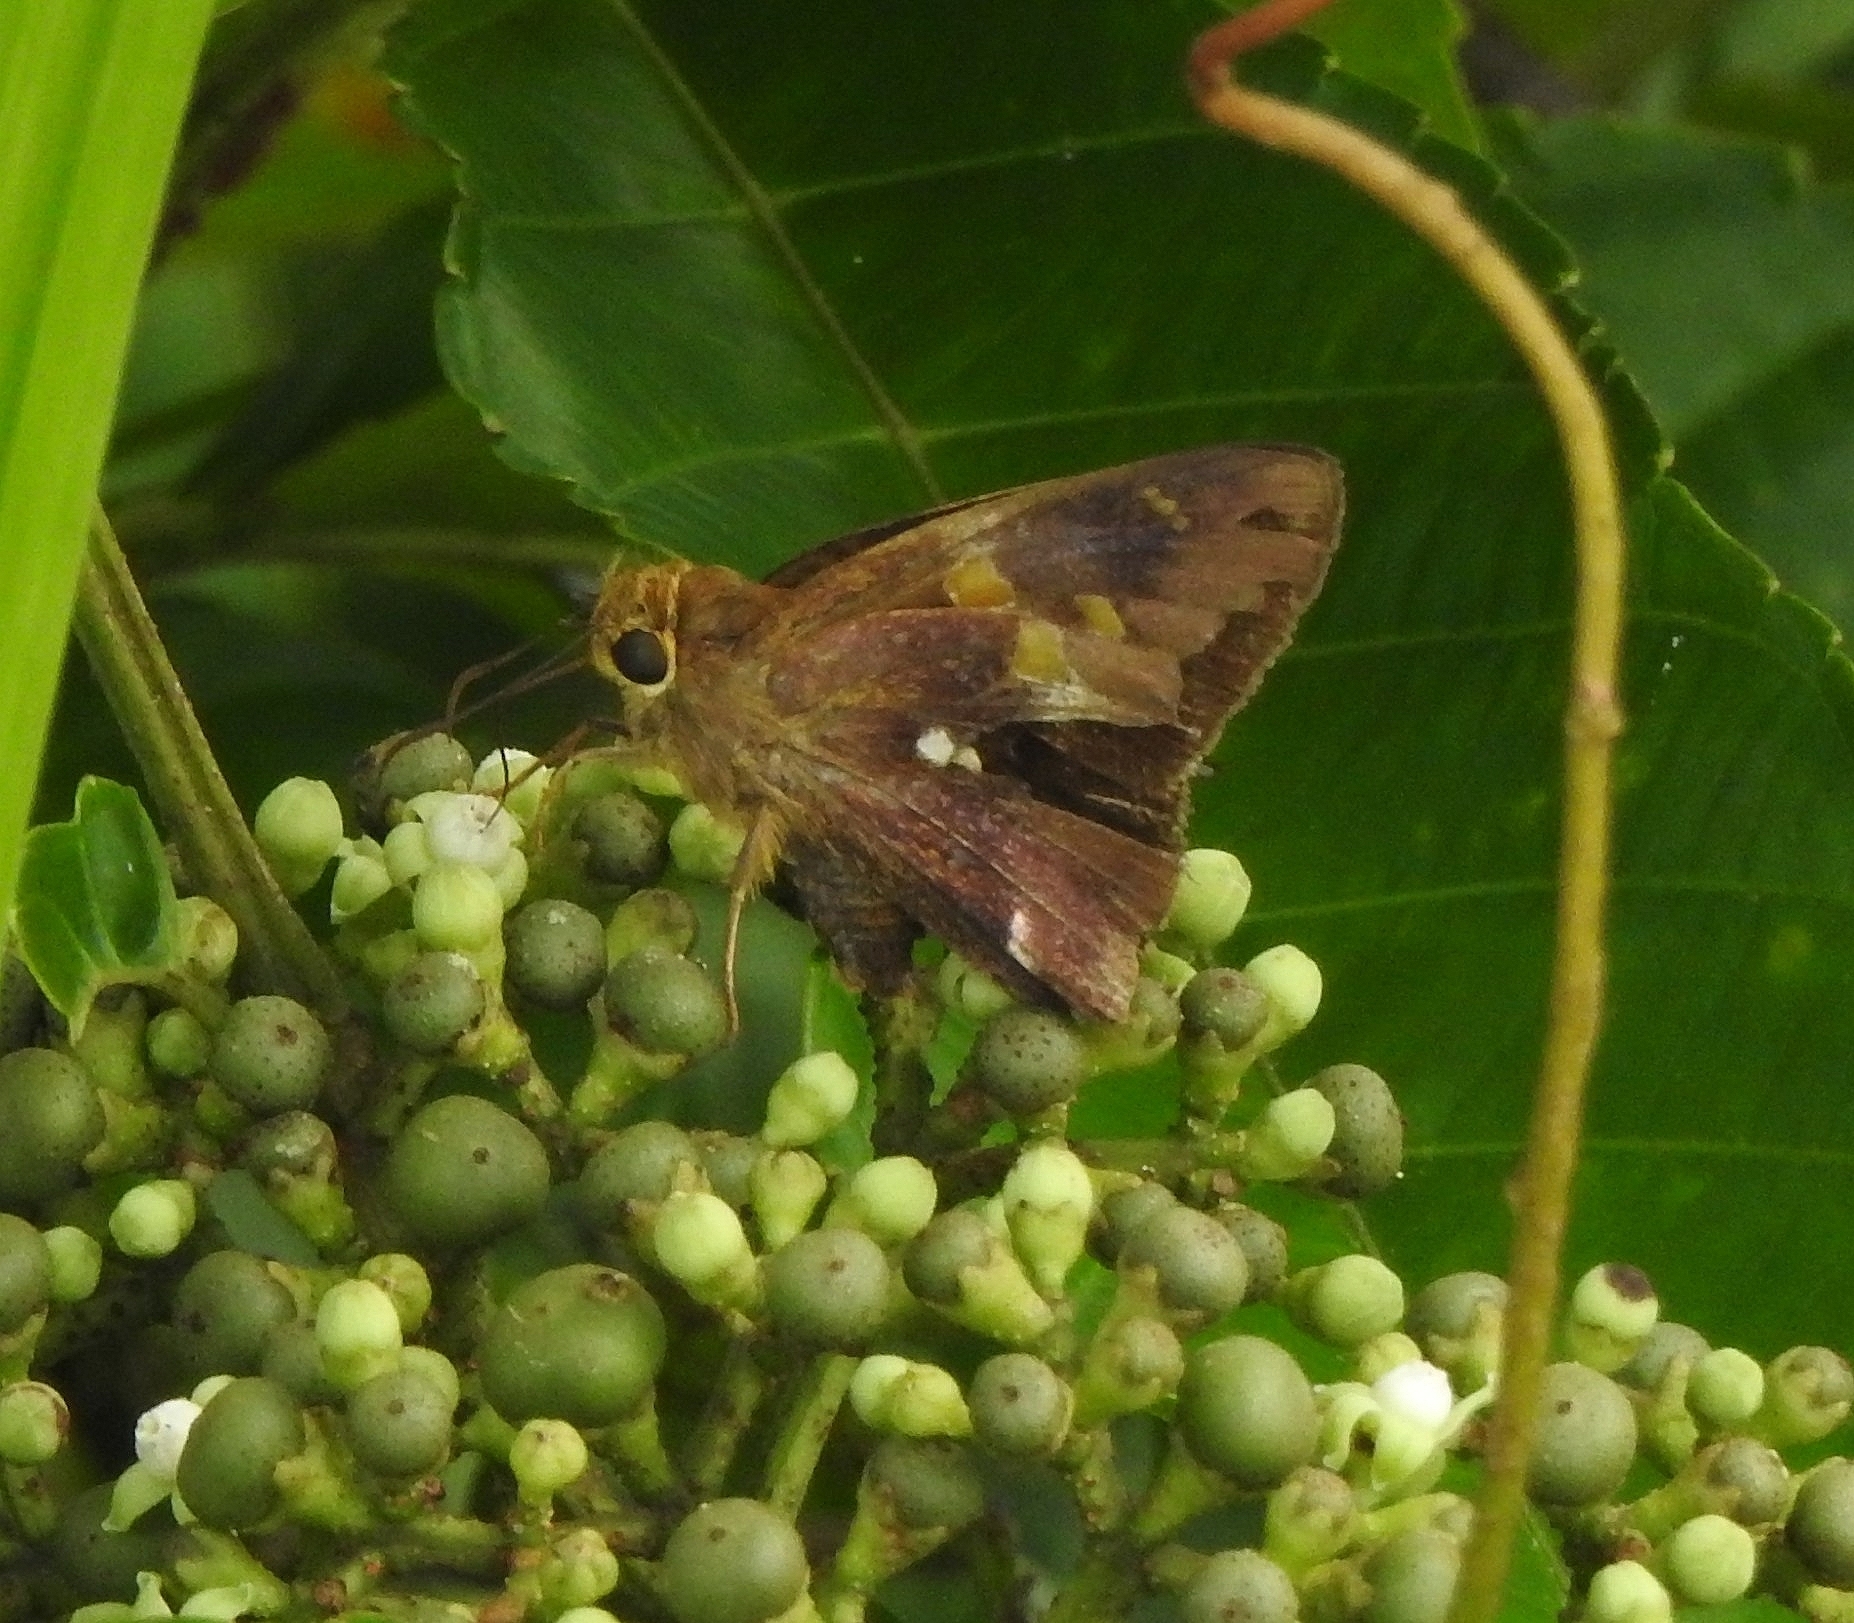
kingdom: Animalia
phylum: Arthropoda
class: Insecta
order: Lepidoptera
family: Hesperiidae
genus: Hasora
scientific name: Hasora badra
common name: Common awl
